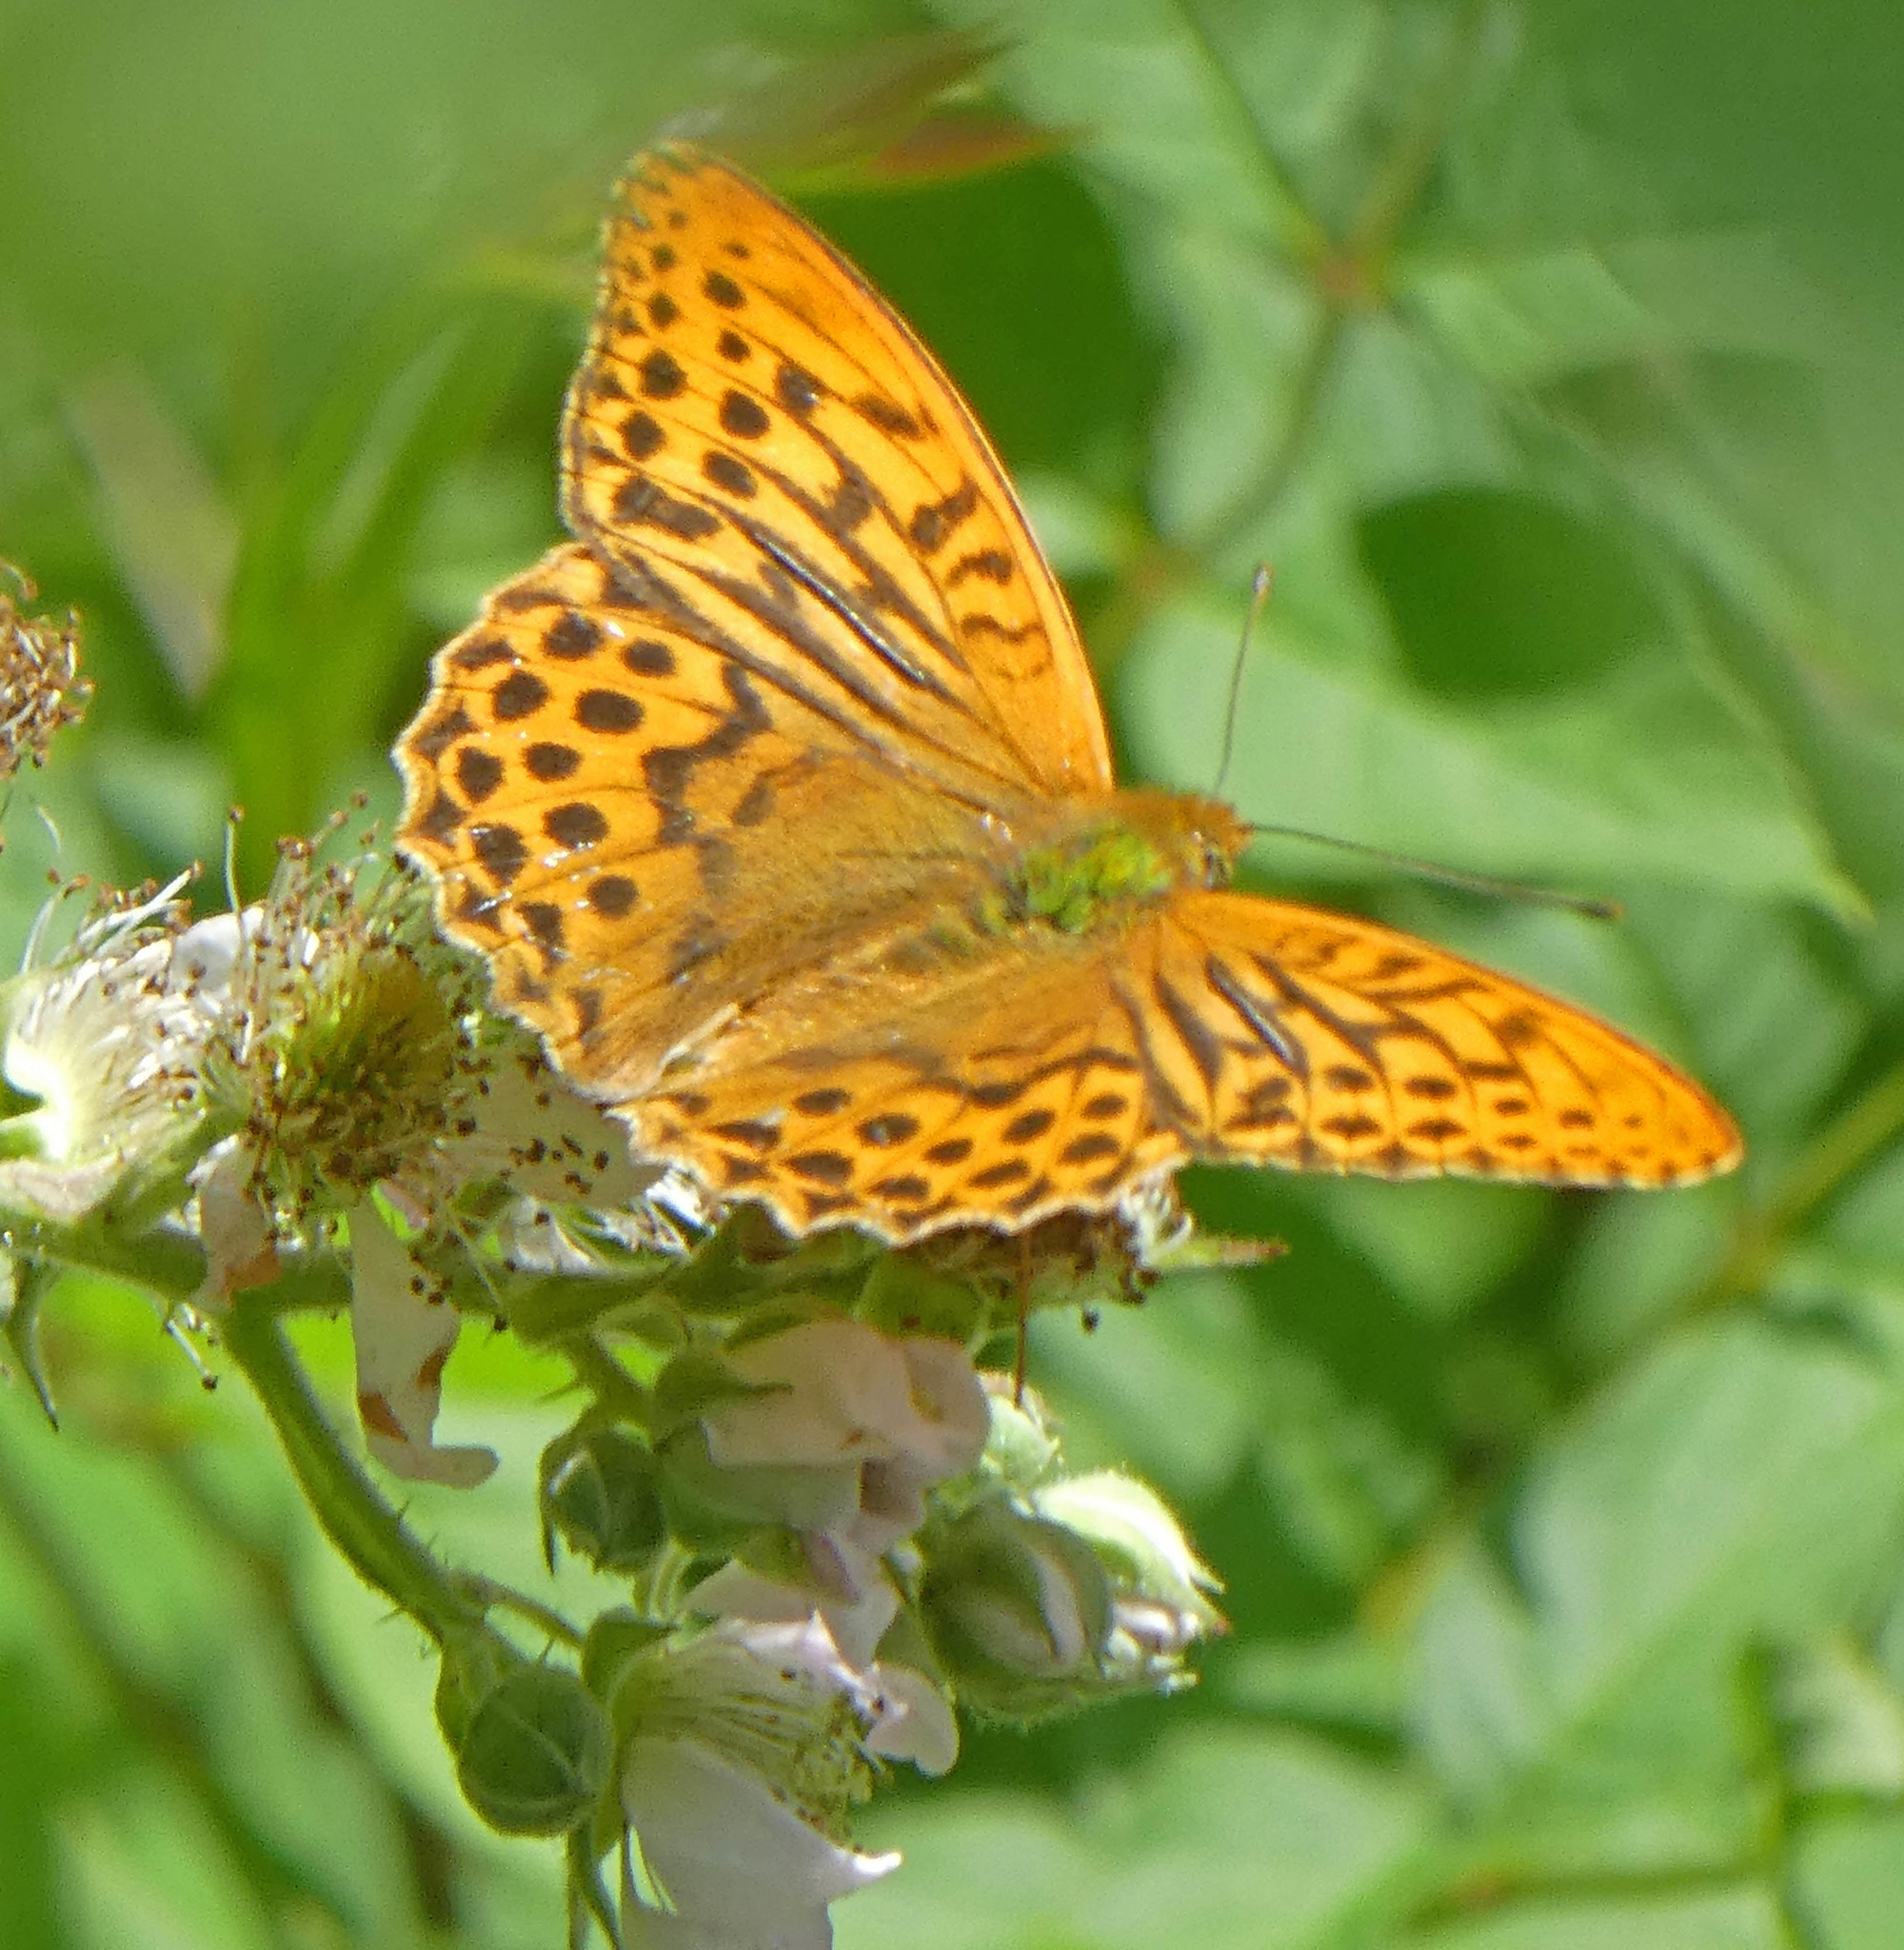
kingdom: Animalia
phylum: Arthropoda
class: Insecta
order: Lepidoptera
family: Nymphalidae
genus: Argynnis
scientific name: Argynnis paphia
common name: Silver-washed fritillary
